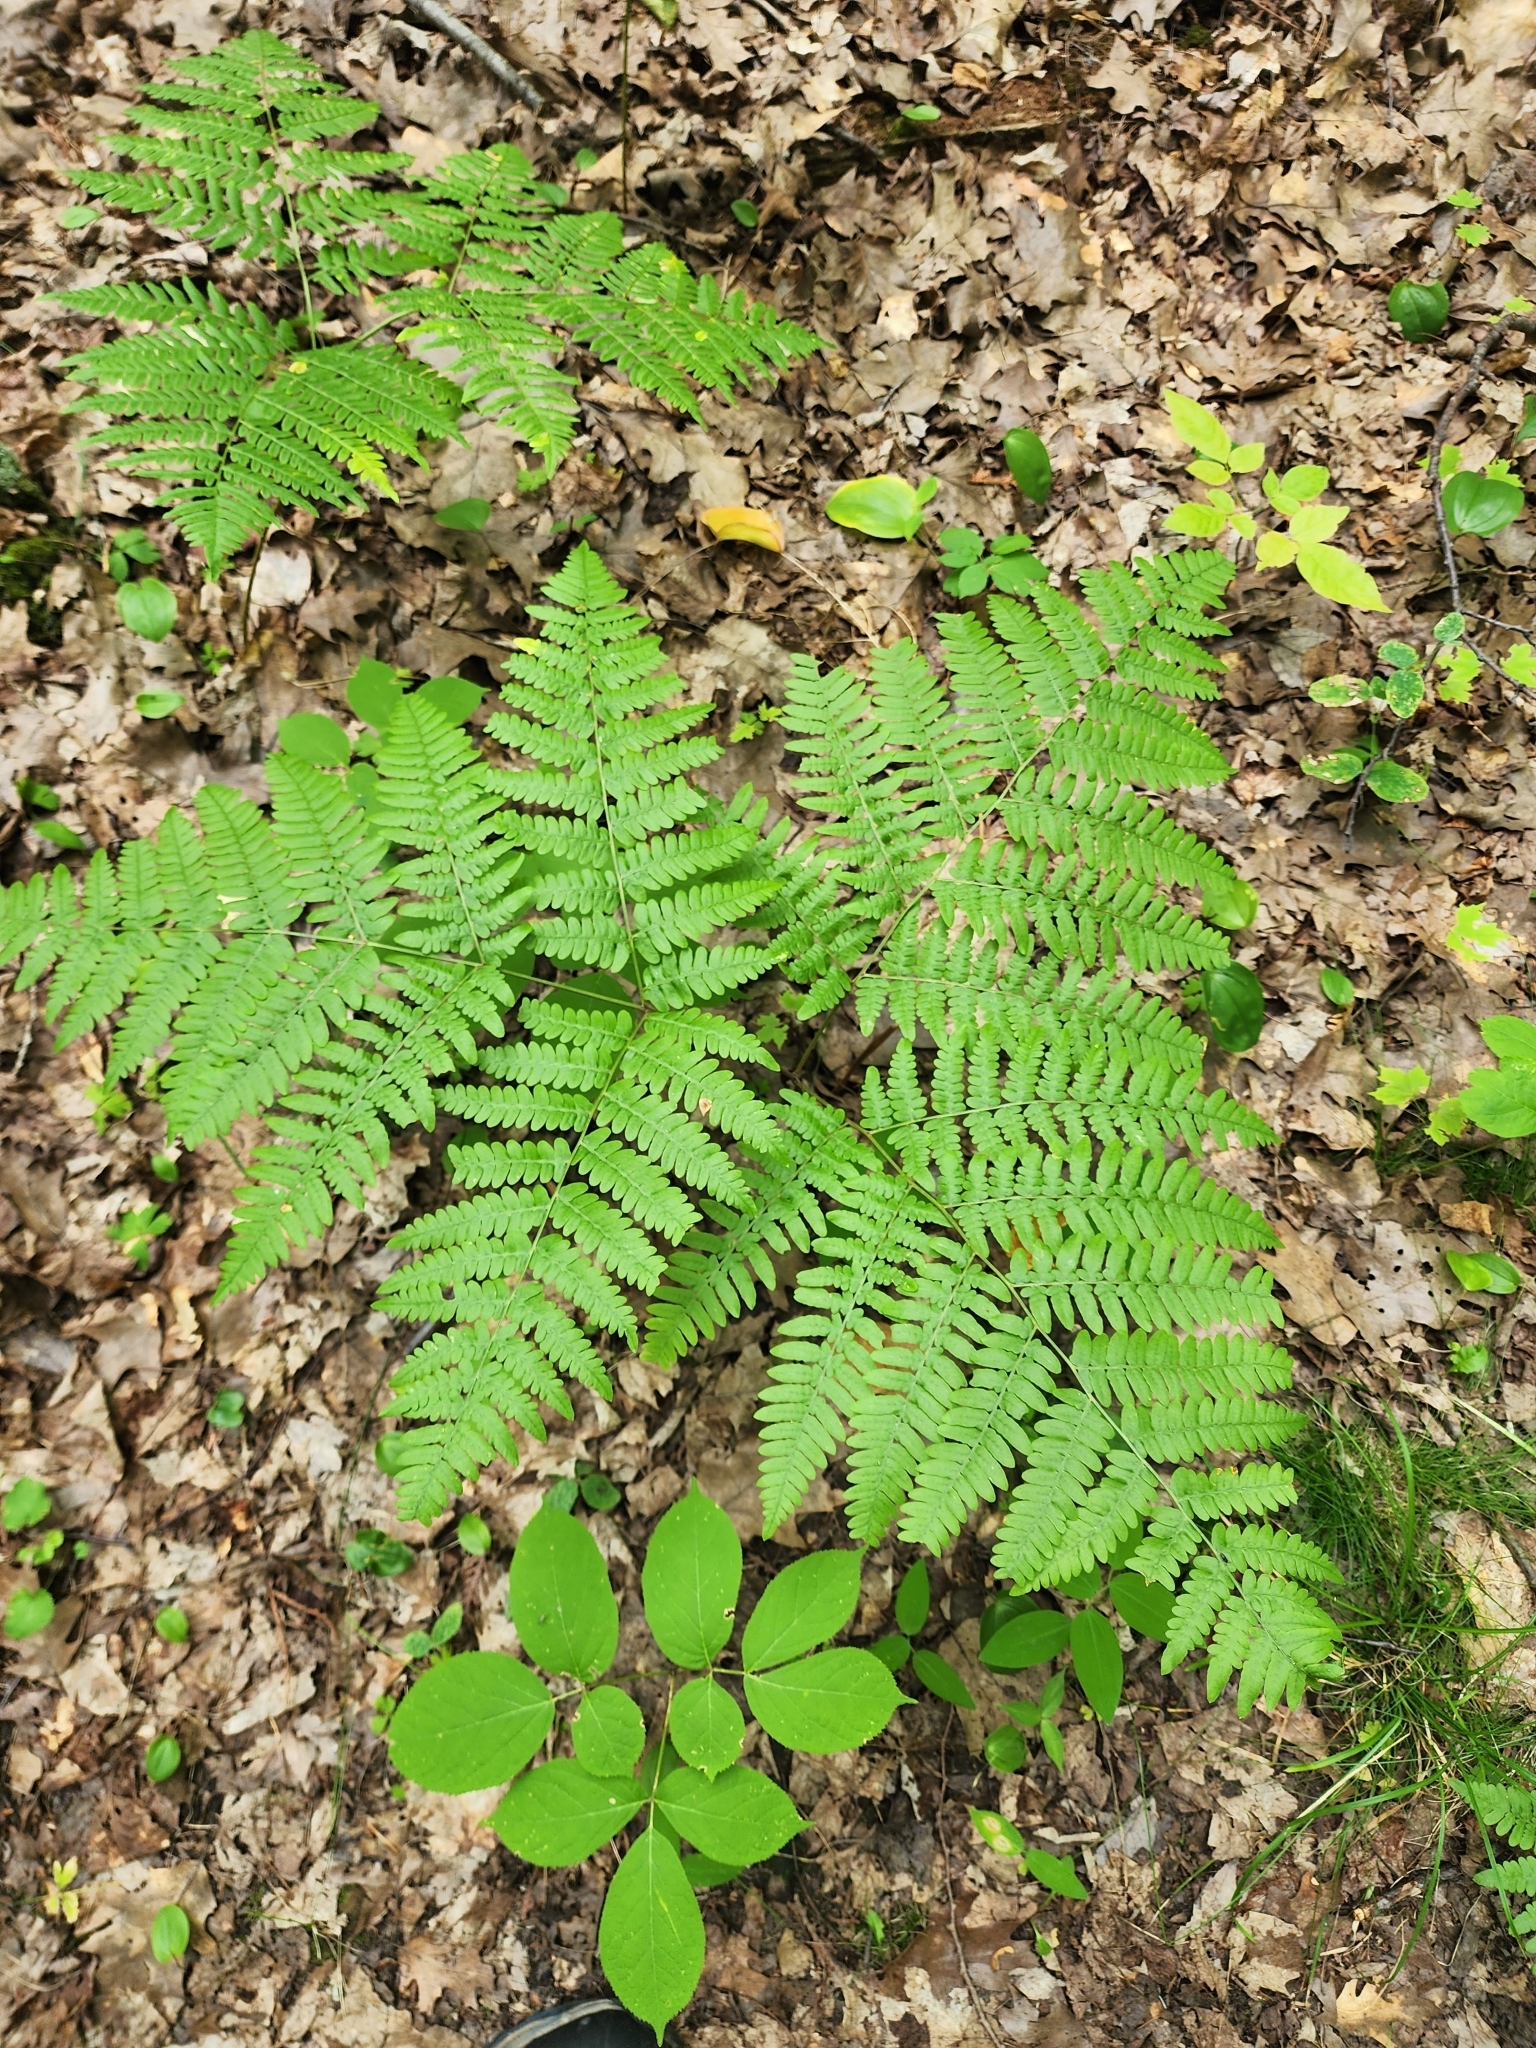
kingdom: Plantae
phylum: Tracheophyta
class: Polypodiopsida
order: Polypodiales
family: Dennstaedtiaceae
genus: Pteridium
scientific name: Pteridium aquilinum
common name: Bracken
